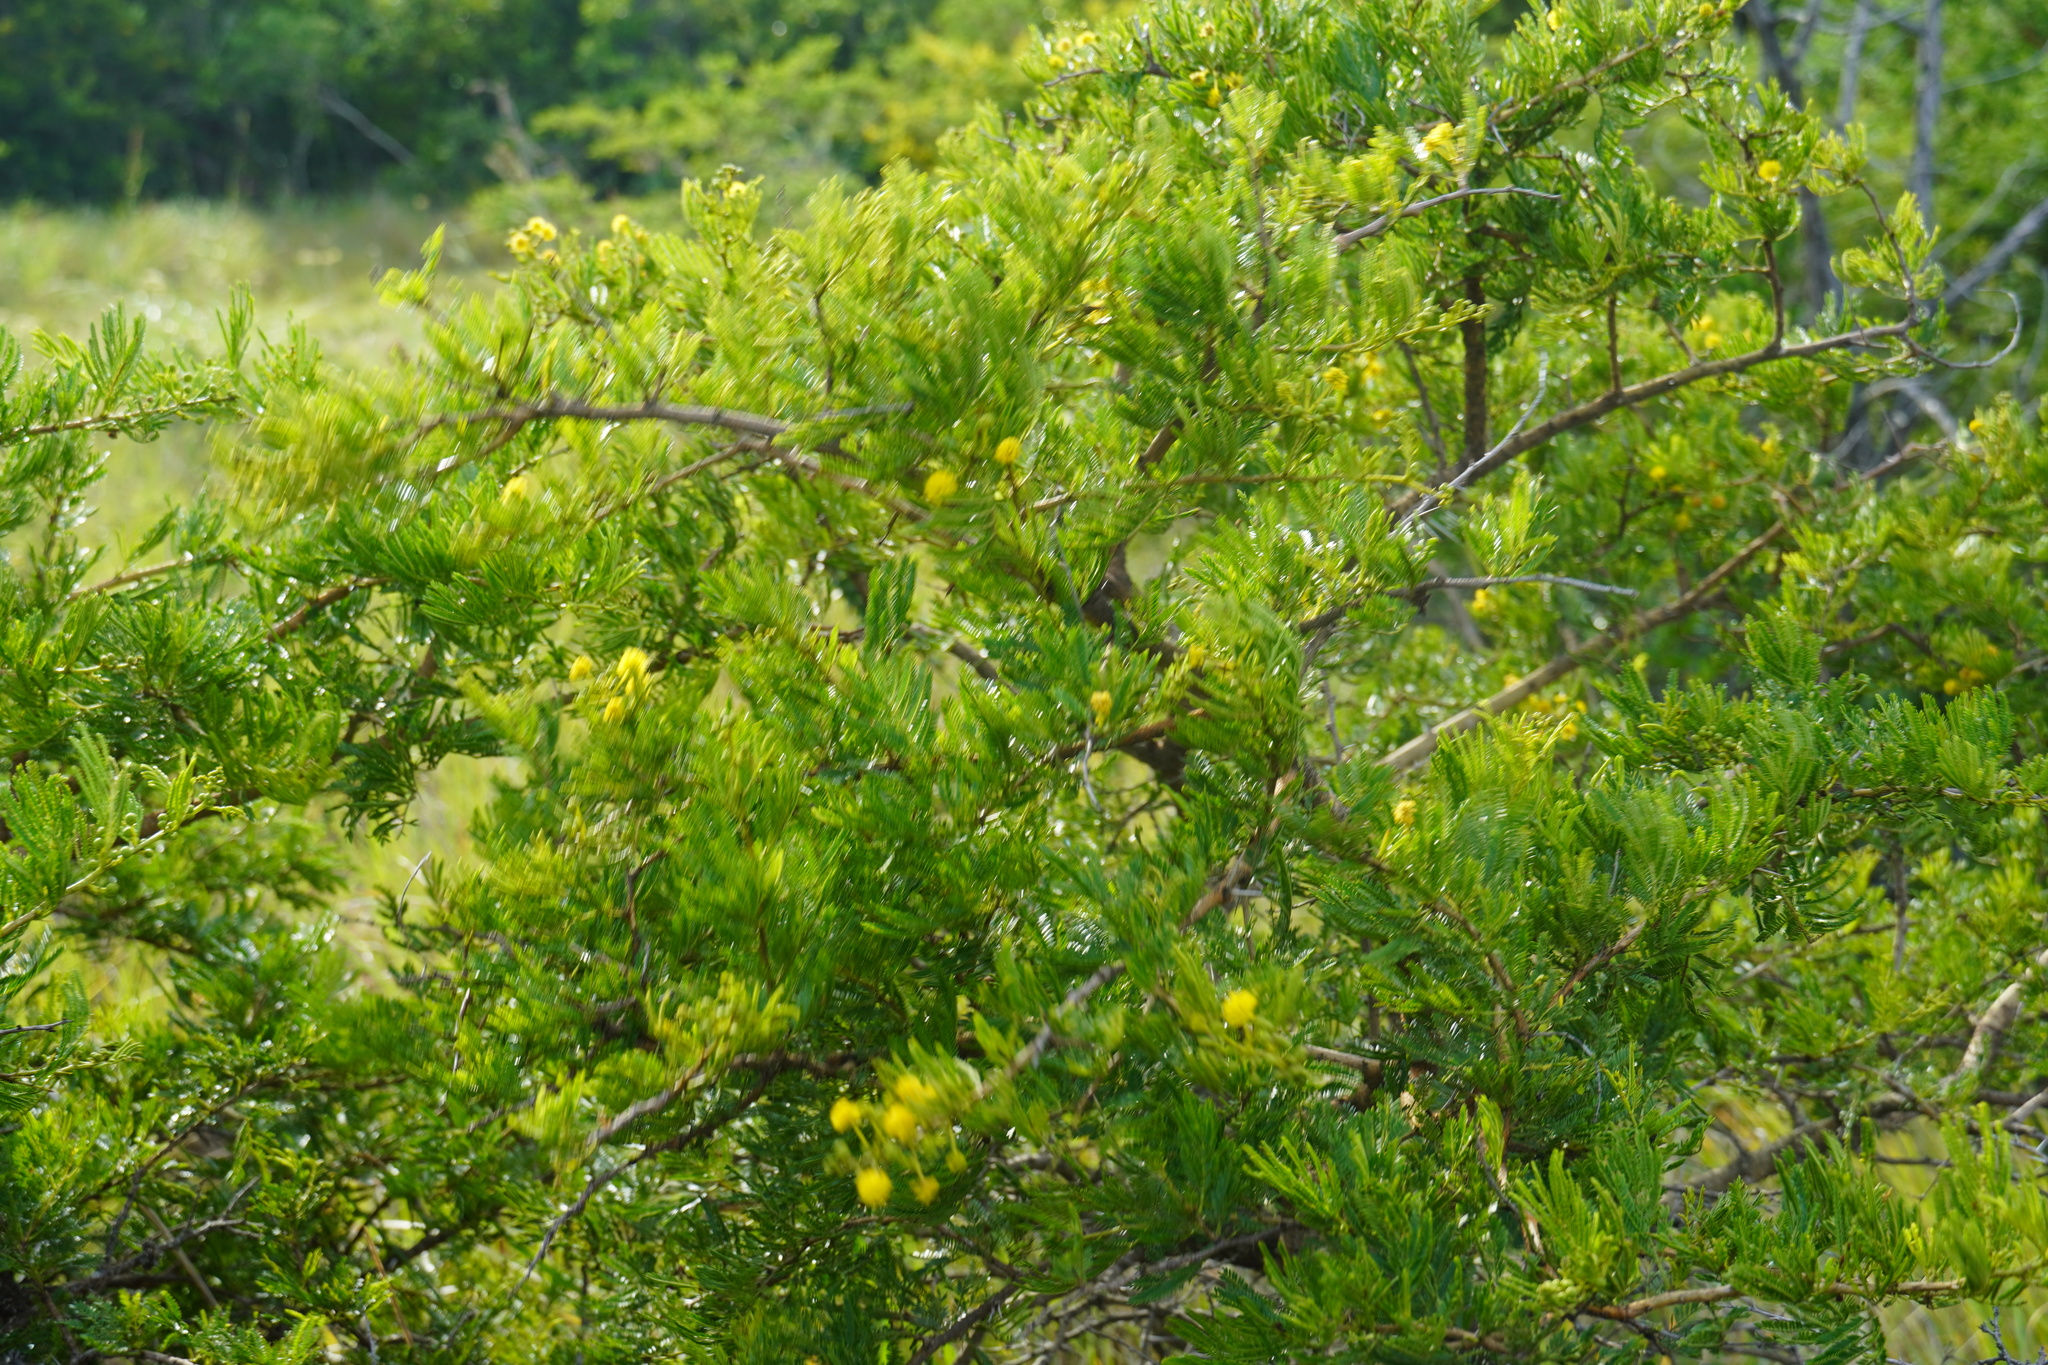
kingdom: Plantae
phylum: Tracheophyta
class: Magnoliopsida
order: Fabales
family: Fabaceae
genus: Vachellia
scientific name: Vachellia karroo
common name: Sweet thorn
